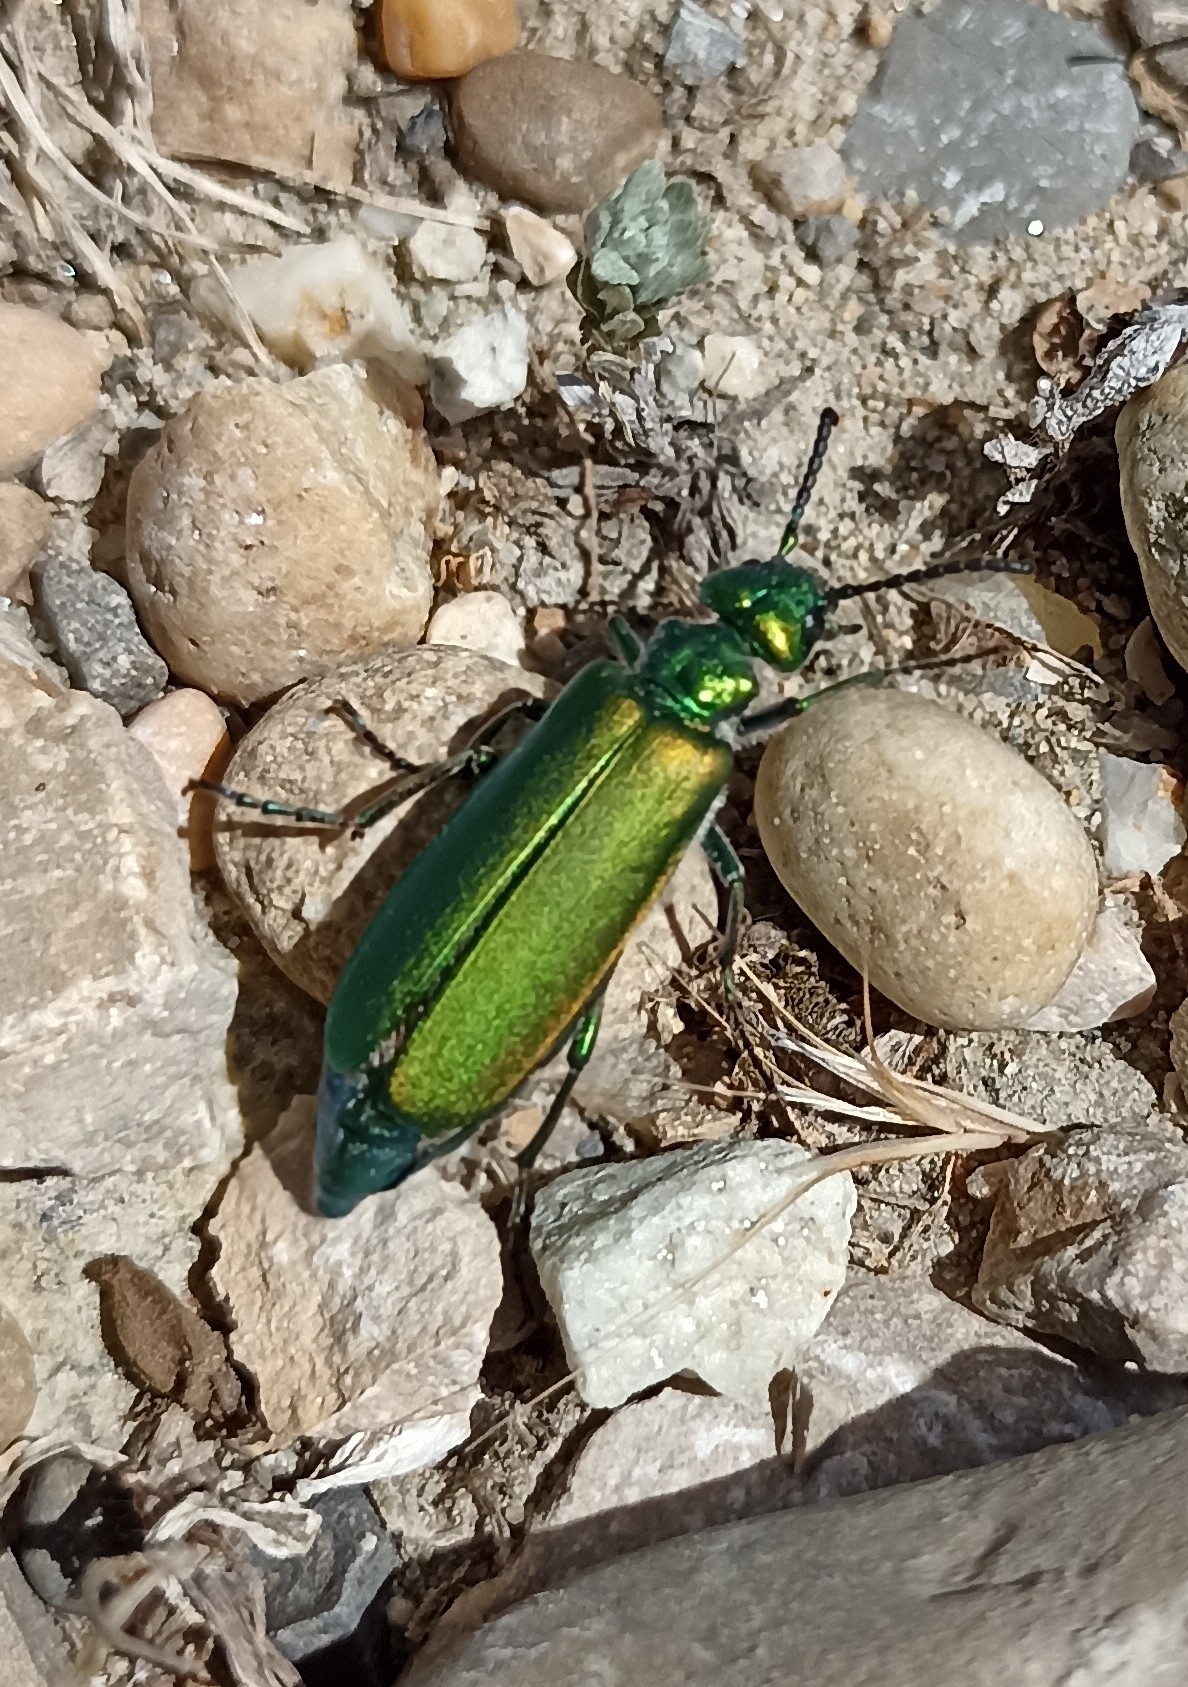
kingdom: Animalia
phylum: Arthropoda
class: Insecta
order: Coleoptera
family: Meloidae
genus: Lytta
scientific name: Lytta vesicatoria
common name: Spanish fly
